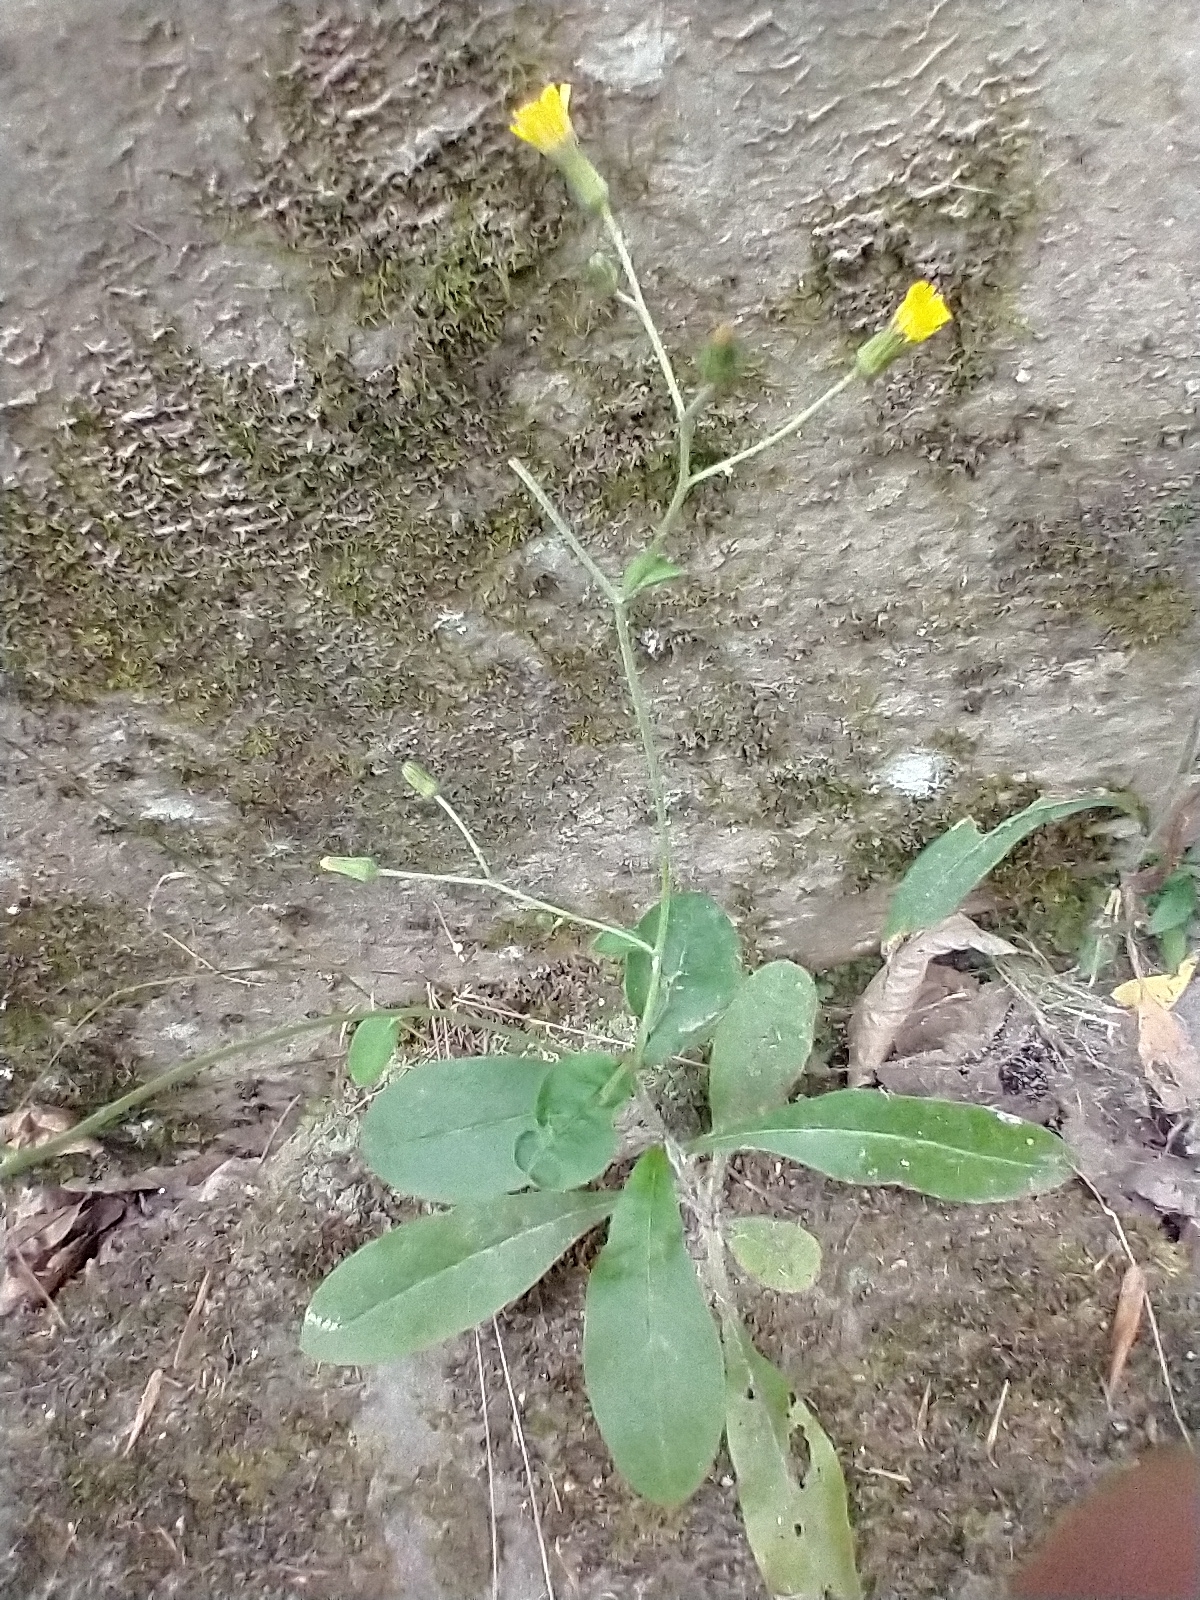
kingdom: Plantae
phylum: Tracheophyta
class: Magnoliopsida
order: Asterales
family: Asteraceae
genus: Hieracium
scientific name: Hieracium scabrum
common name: Rough hawkweed
